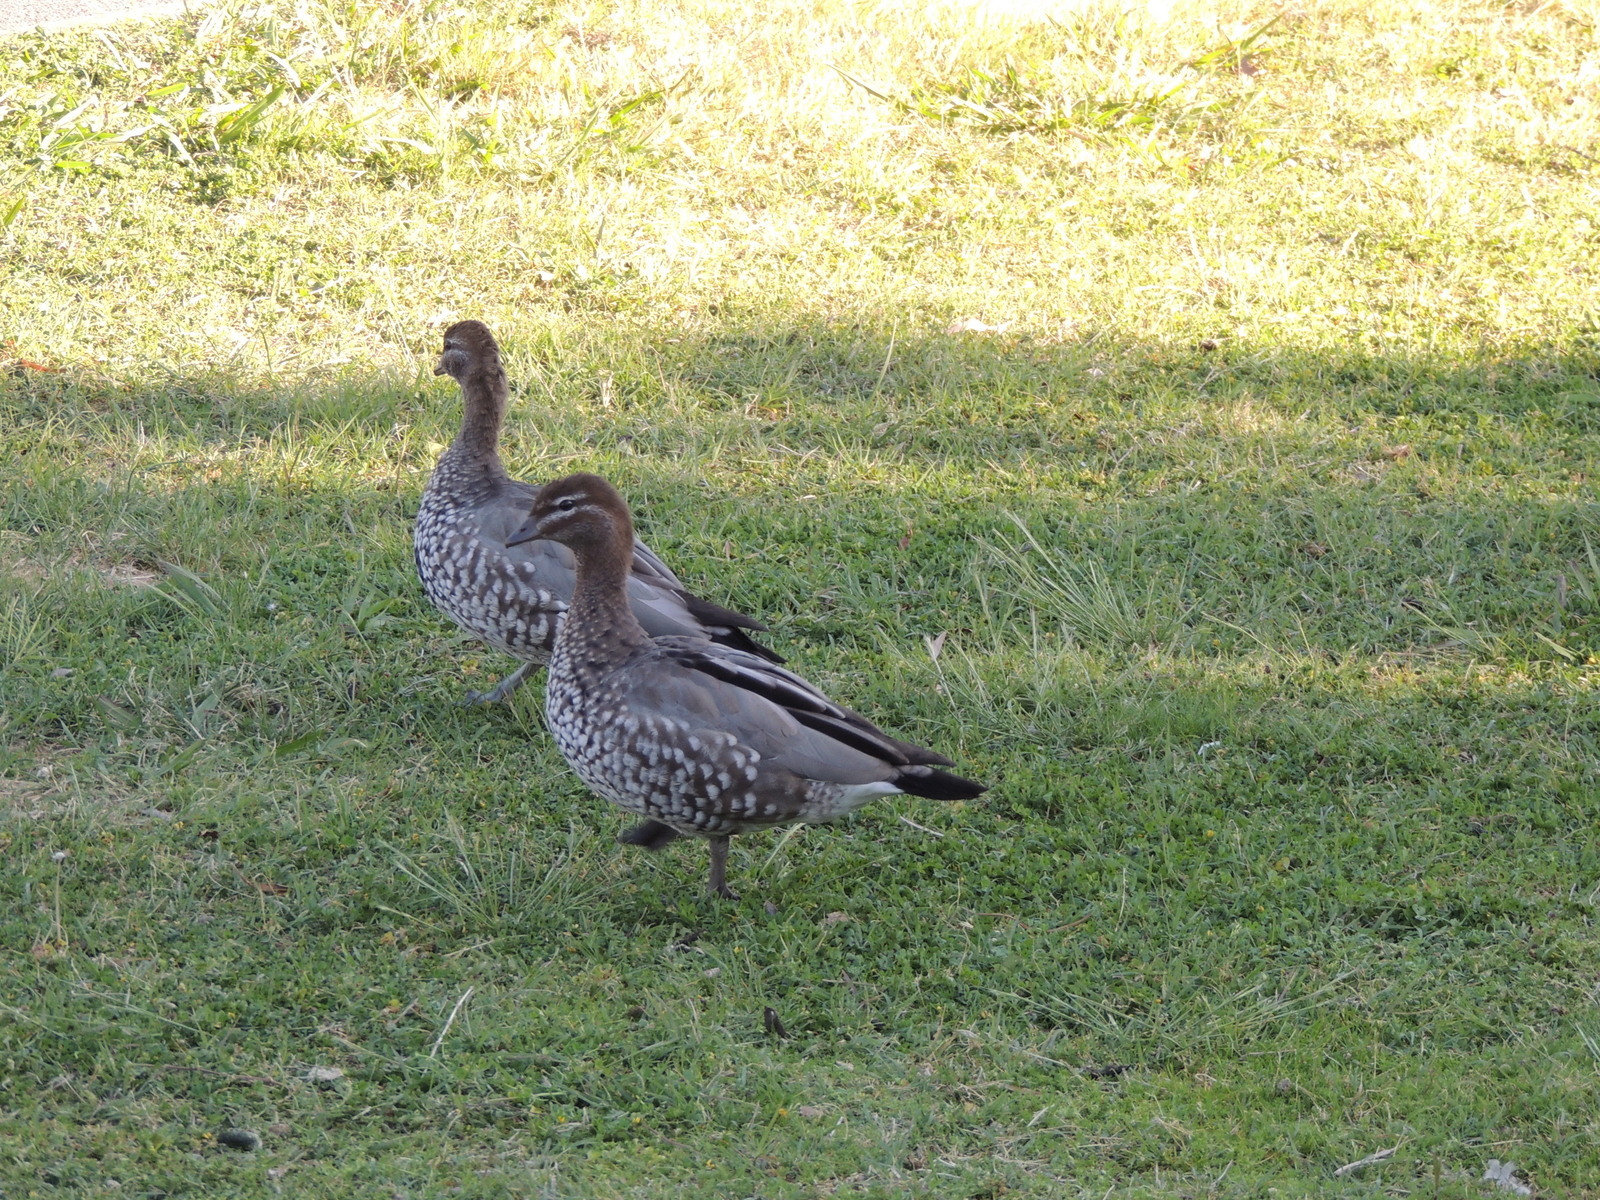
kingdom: Animalia
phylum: Chordata
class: Aves
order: Anseriformes
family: Anatidae
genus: Chenonetta
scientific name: Chenonetta jubata
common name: Maned duck
